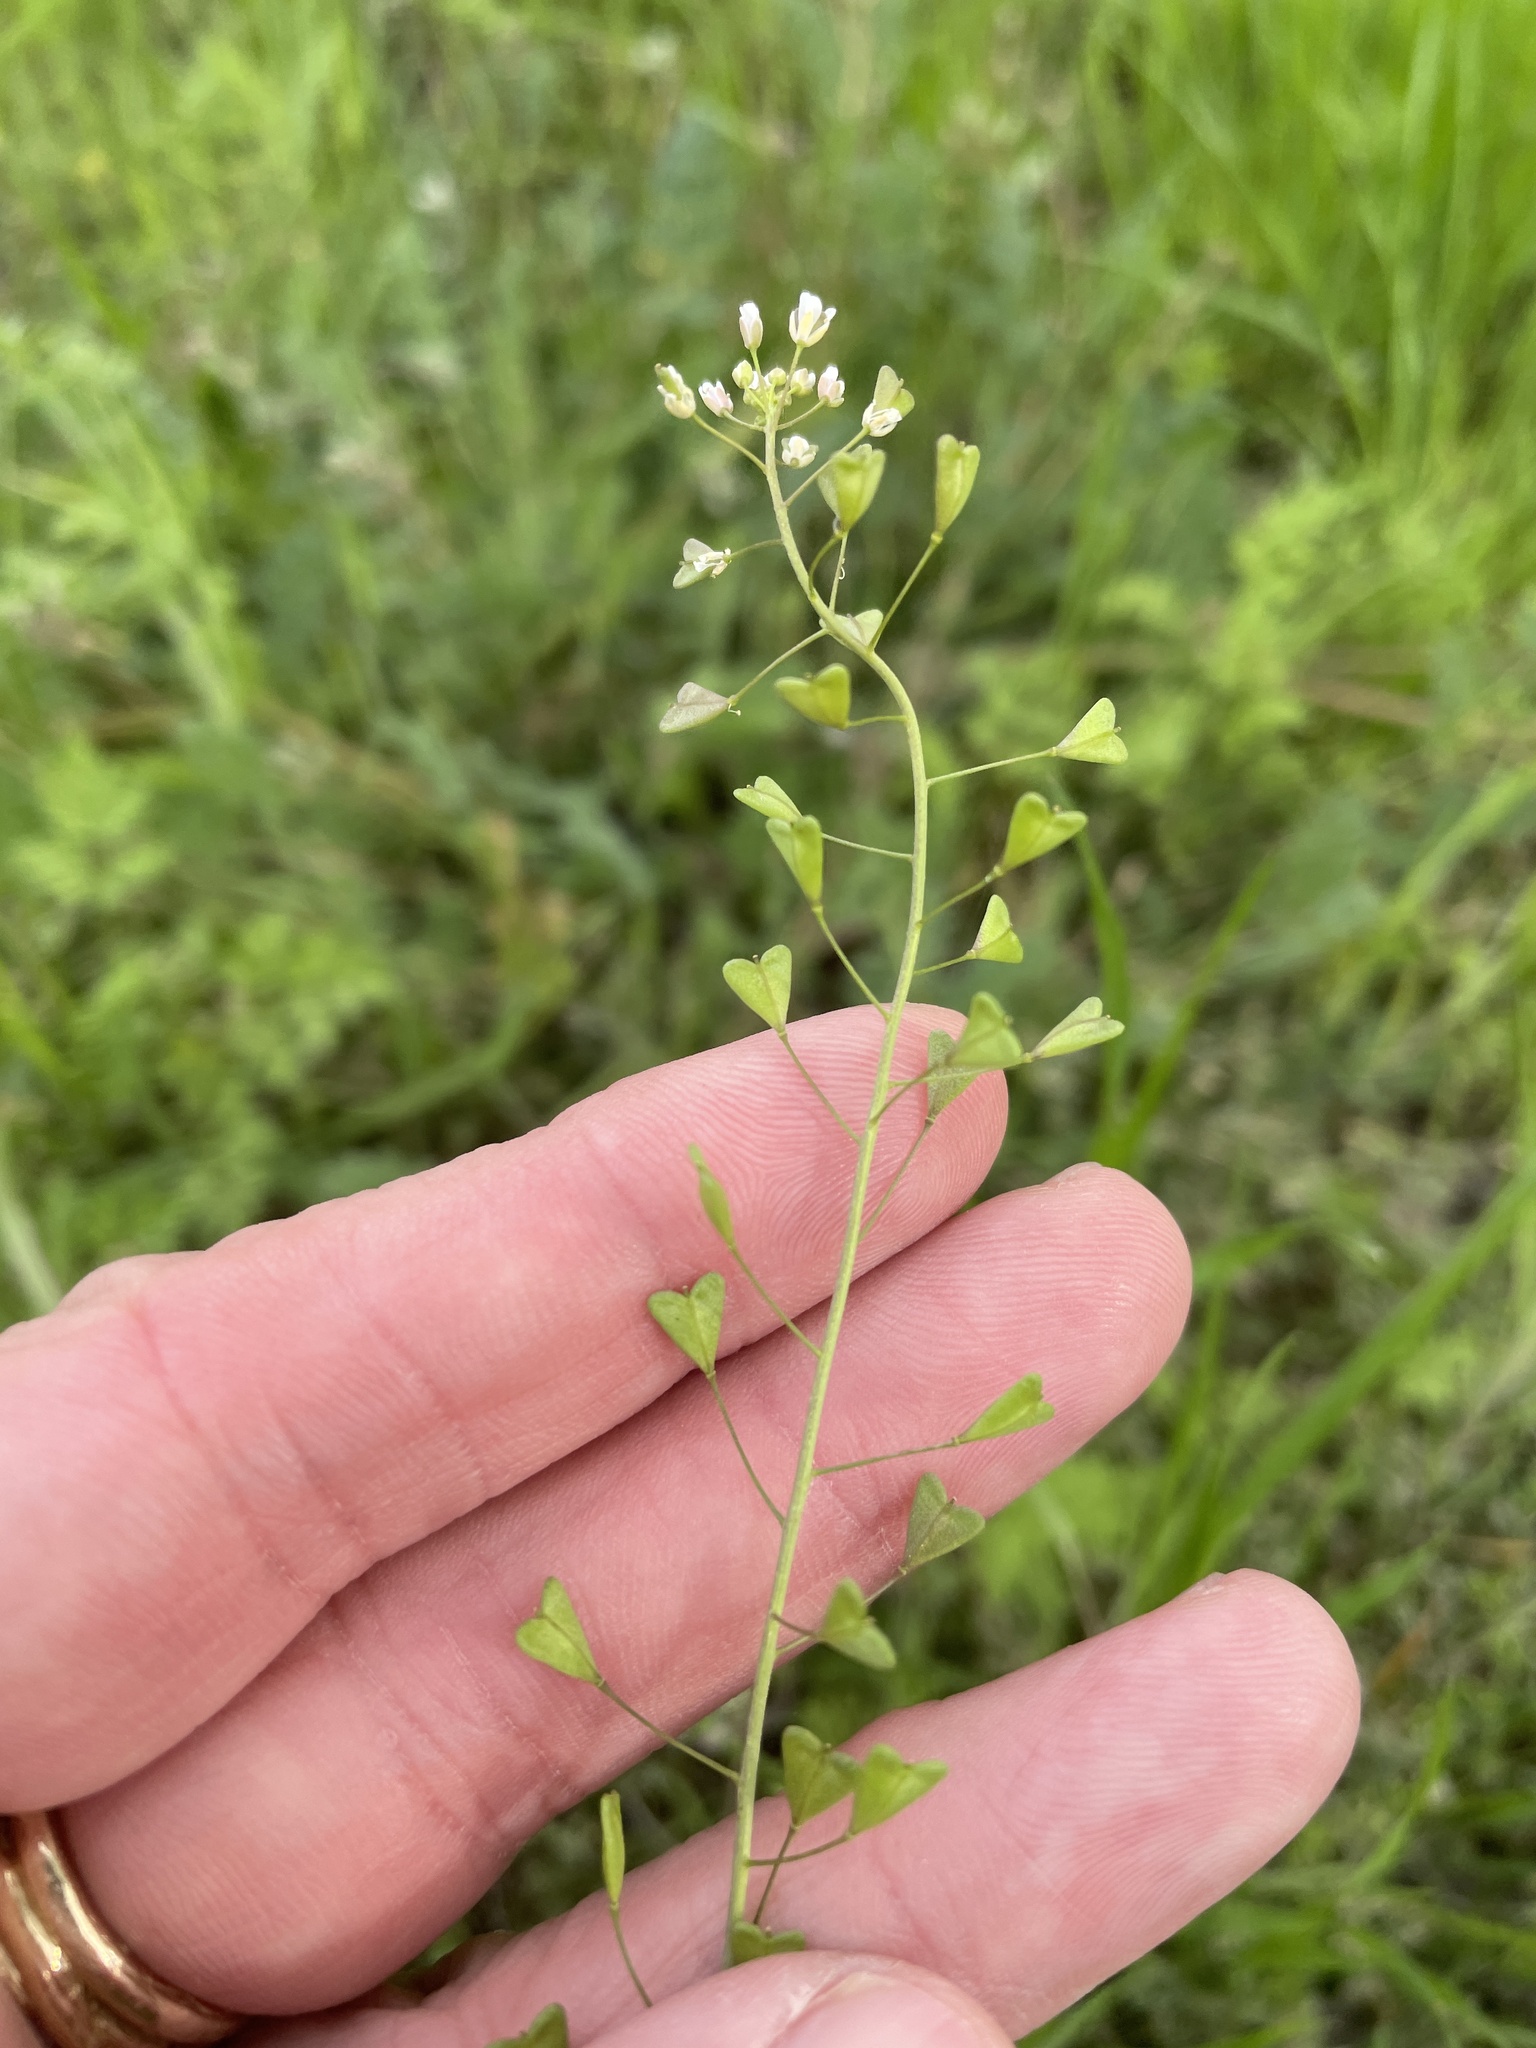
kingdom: Plantae
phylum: Tracheophyta
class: Magnoliopsida
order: Brassicales
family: Brassicaceae
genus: Capsella
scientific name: Capsella bursa-pastoris
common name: Shepherd's purse
